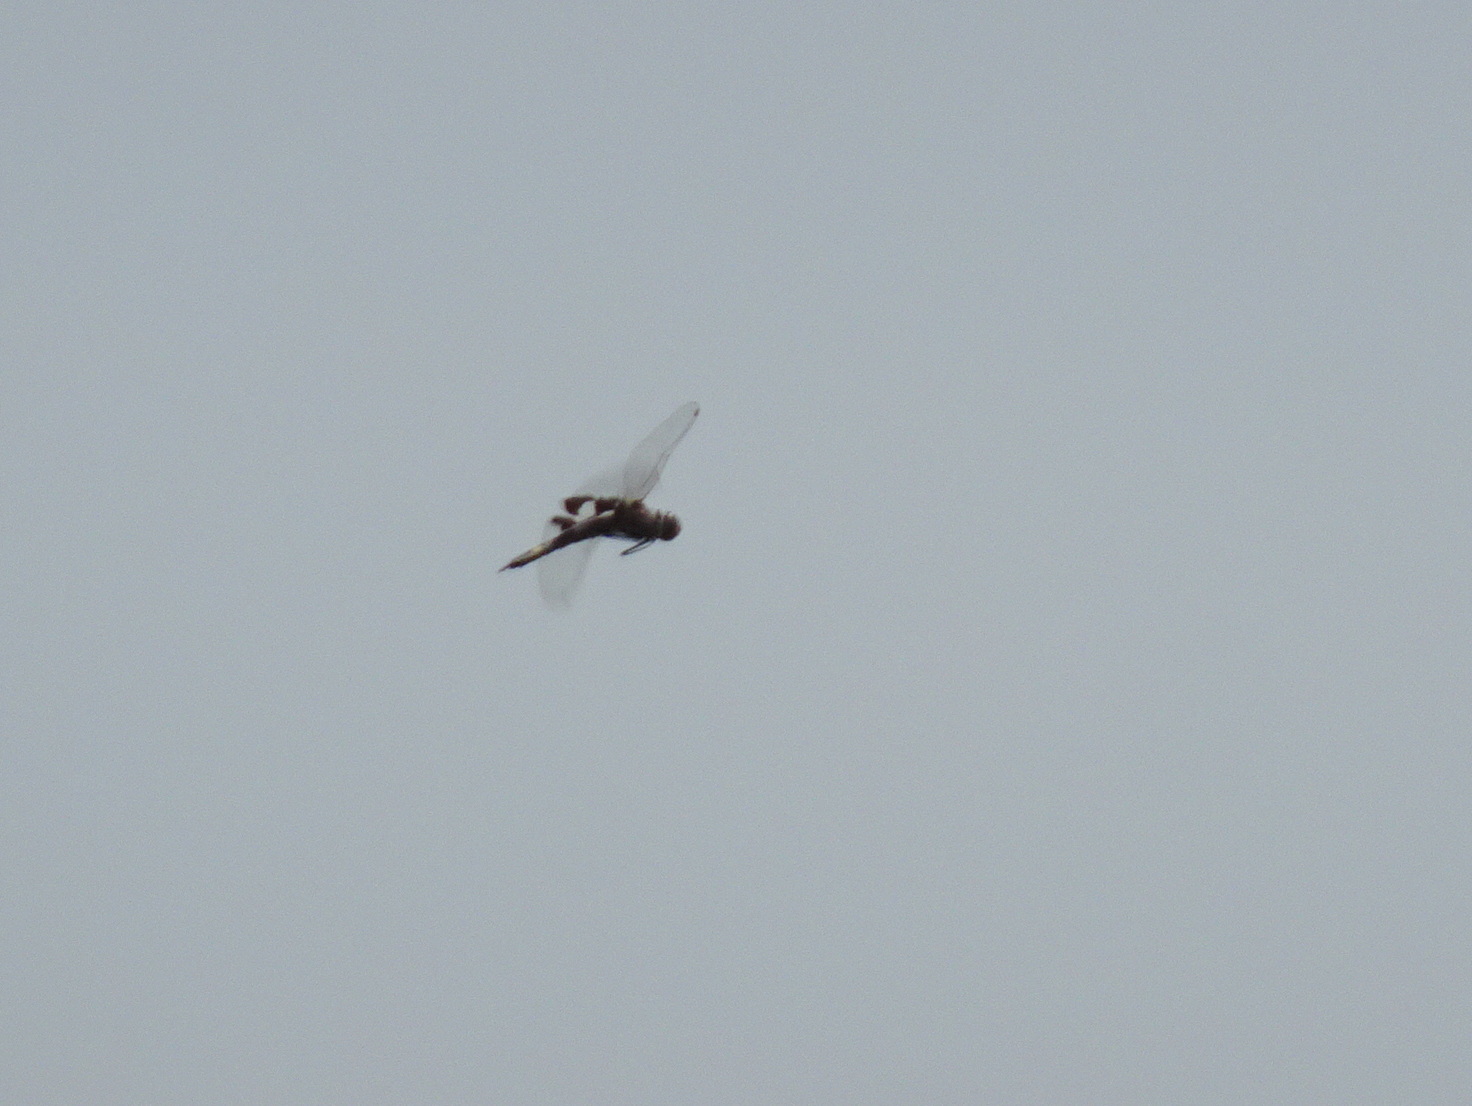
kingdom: Animalia
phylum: Arthropoda
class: Insecta
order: Odonata
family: Libellulidae
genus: Tramea
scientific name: Tramea lacerata
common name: Black saddlebags
